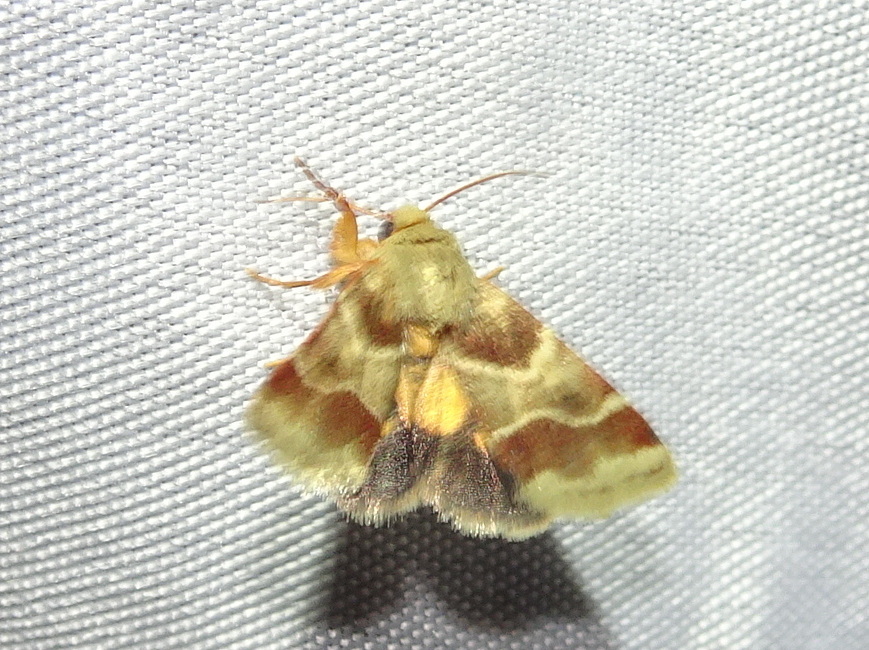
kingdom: Animalia
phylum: Arthropoda
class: Insecta
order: Lepidoptera
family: Noctuidae
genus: Schinia
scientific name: Schinia lynx
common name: Lynx flower moth
